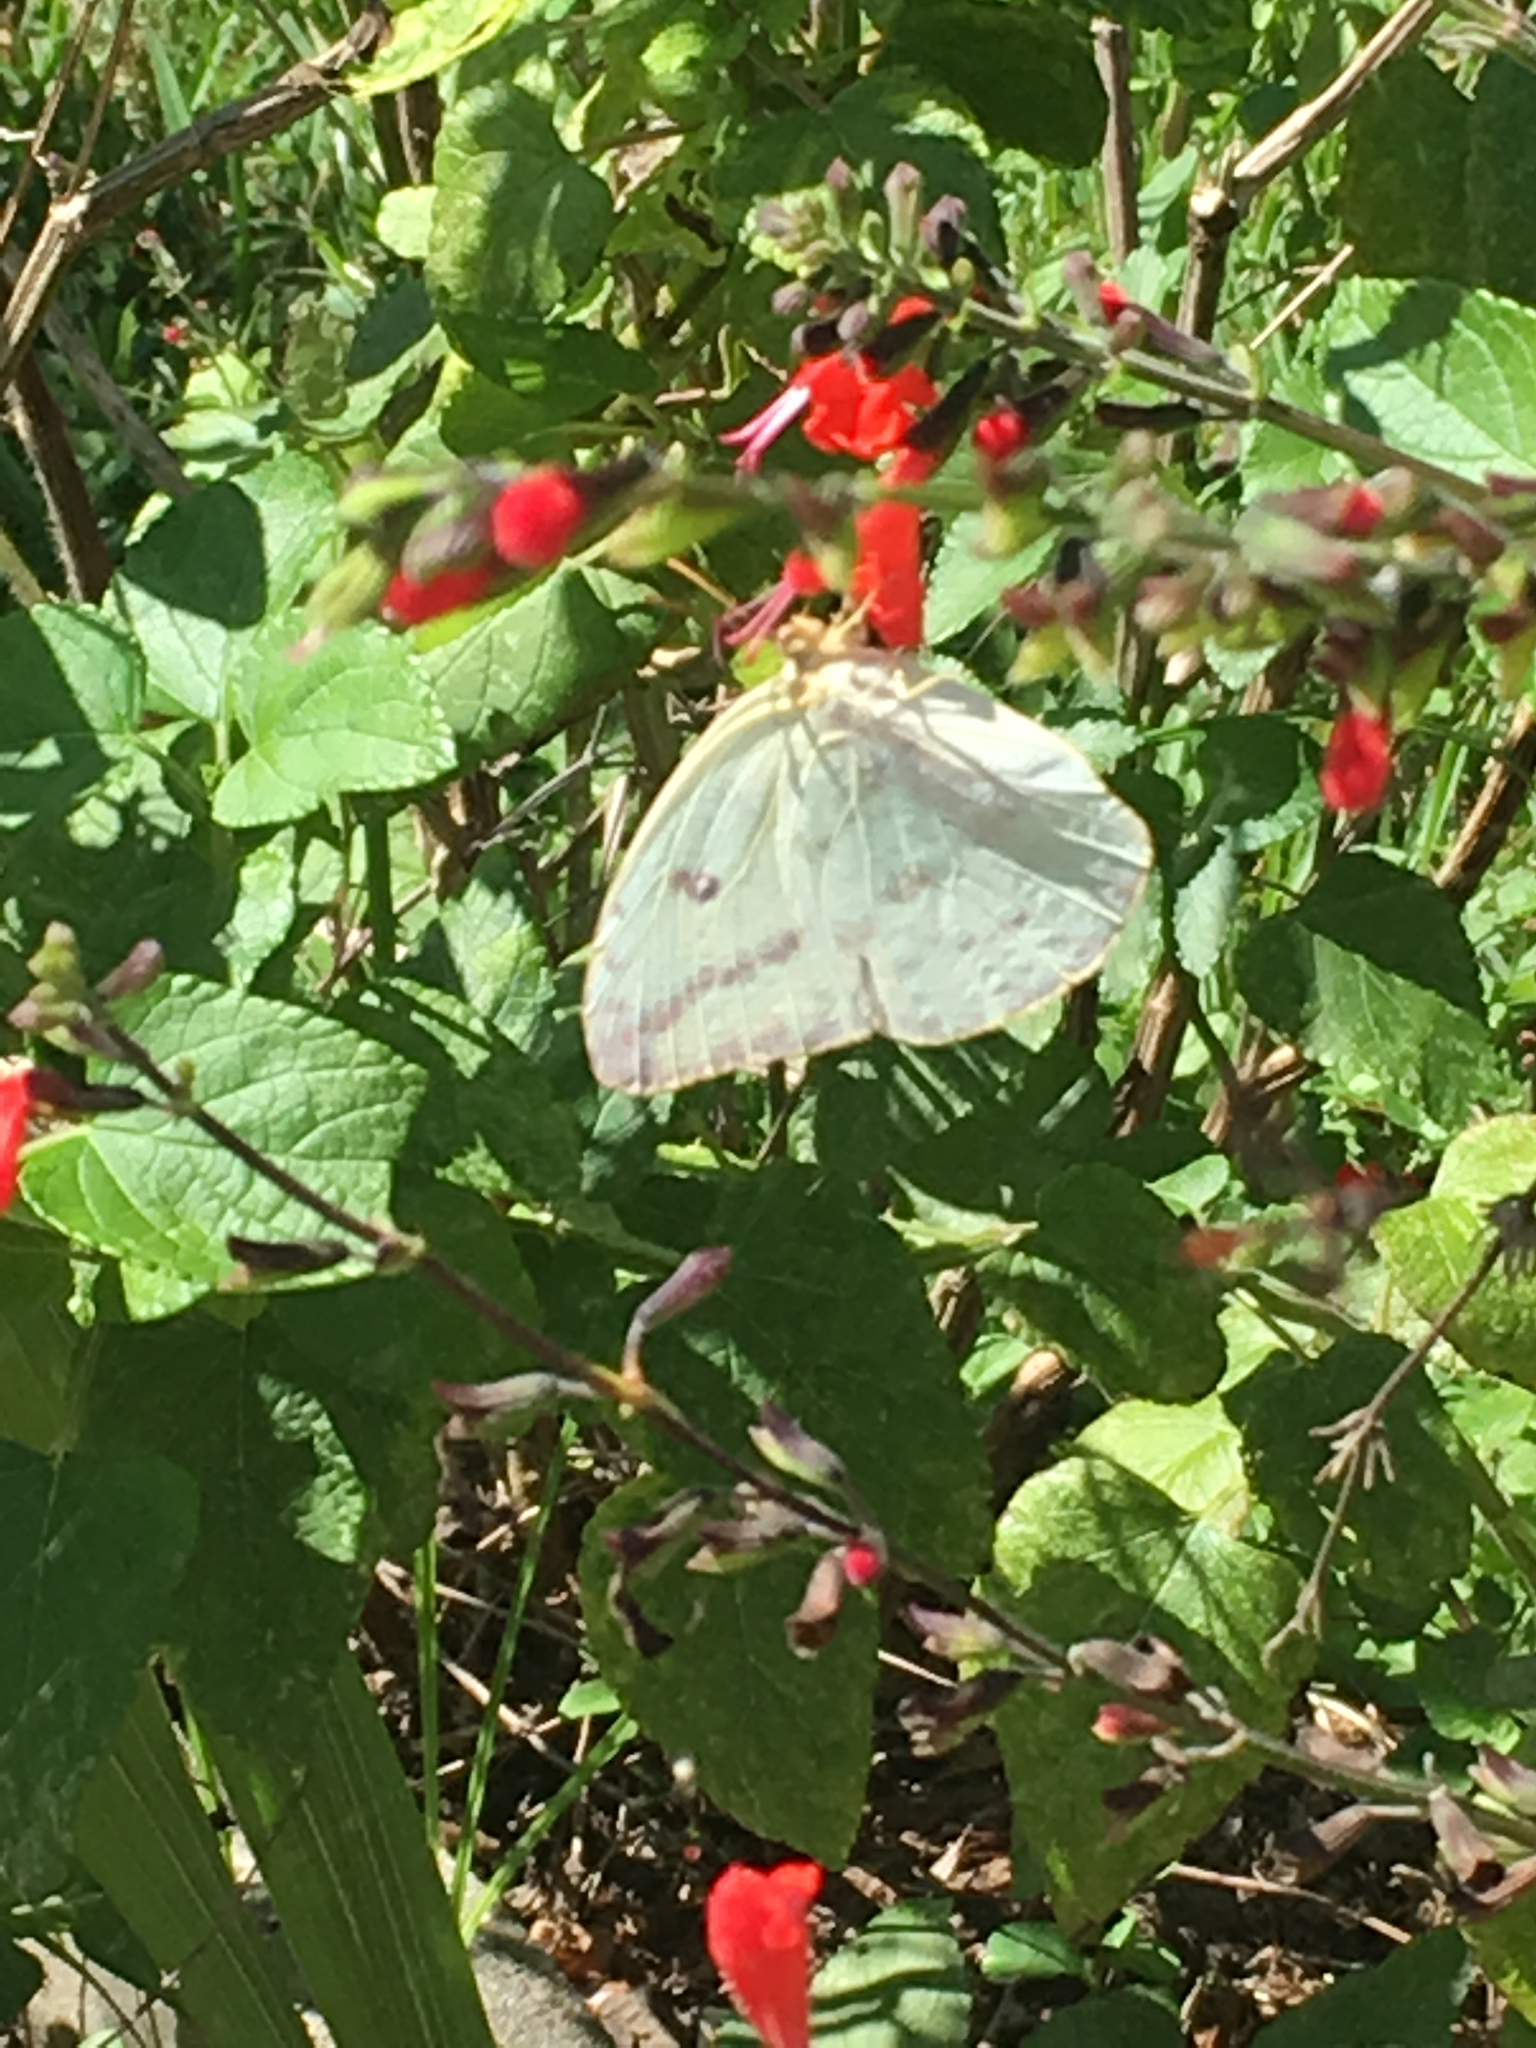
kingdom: Animalia
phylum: Arthropoda
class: Insecta
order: Lepidoptera
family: Pieridae
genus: Phoebis
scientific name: Phoebis agarithe
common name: Large orange sulphur
